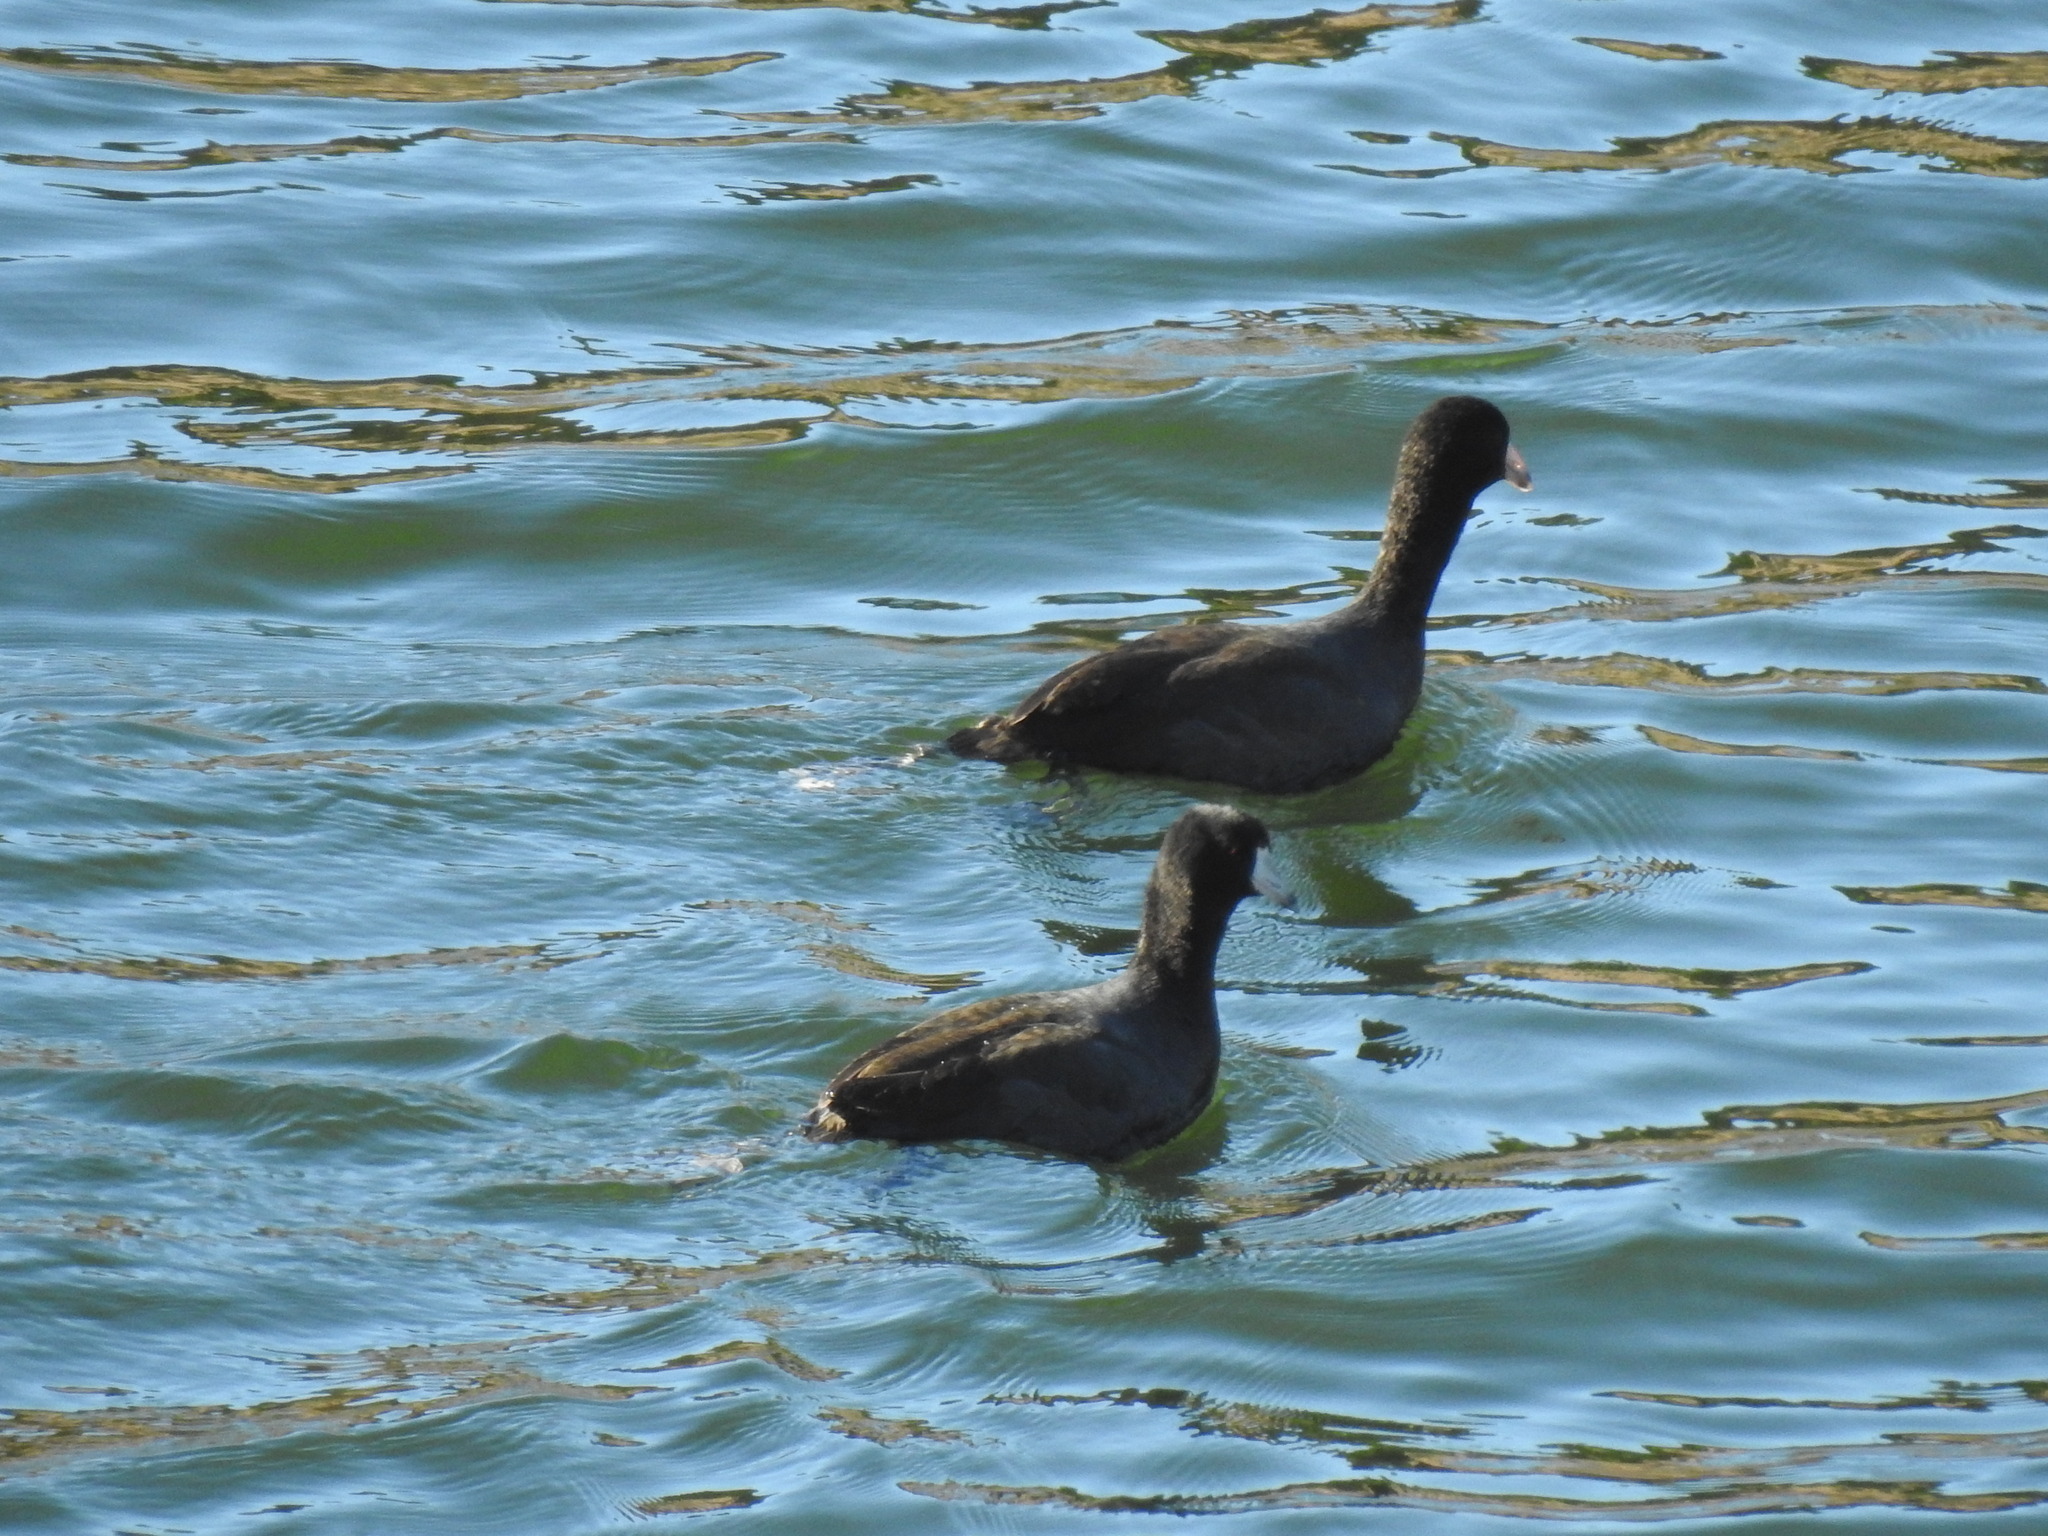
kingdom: Animalia
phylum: Chordata
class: Aves
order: Gruiformes
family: Rallidae
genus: Fulica
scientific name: Fulica americana
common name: American coot
